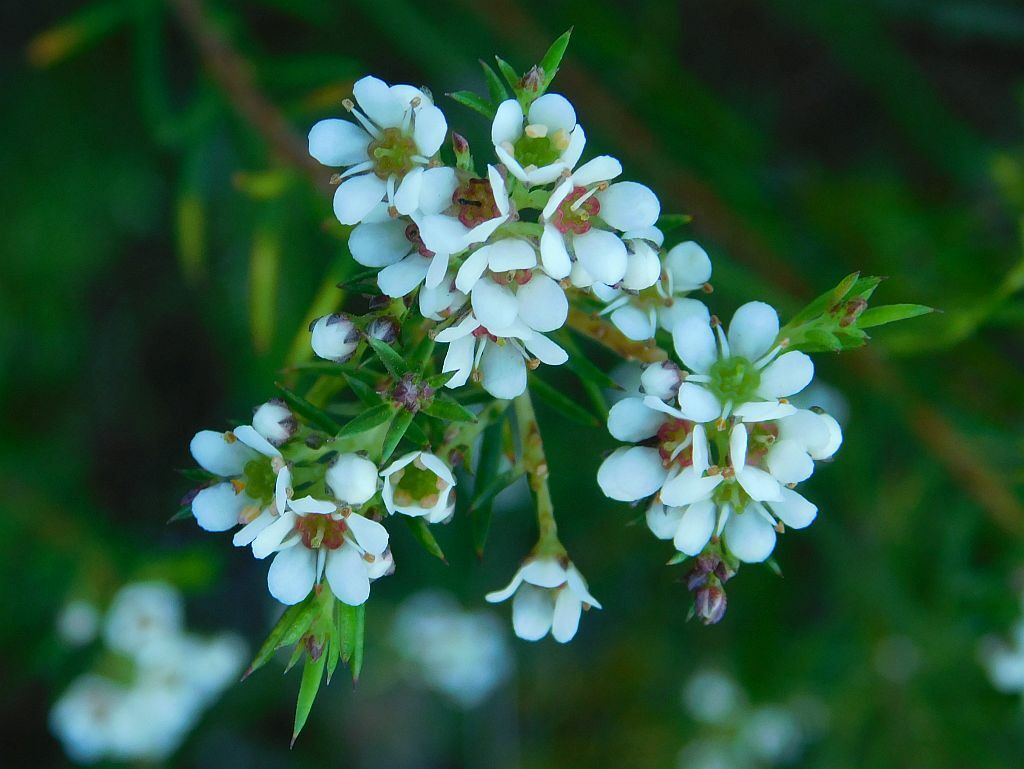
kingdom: Plantae
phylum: Tracheophyta
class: Magnoliopsida
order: Sapindales
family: Rutaceae
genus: Diosma
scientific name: Diosma hirsuta
